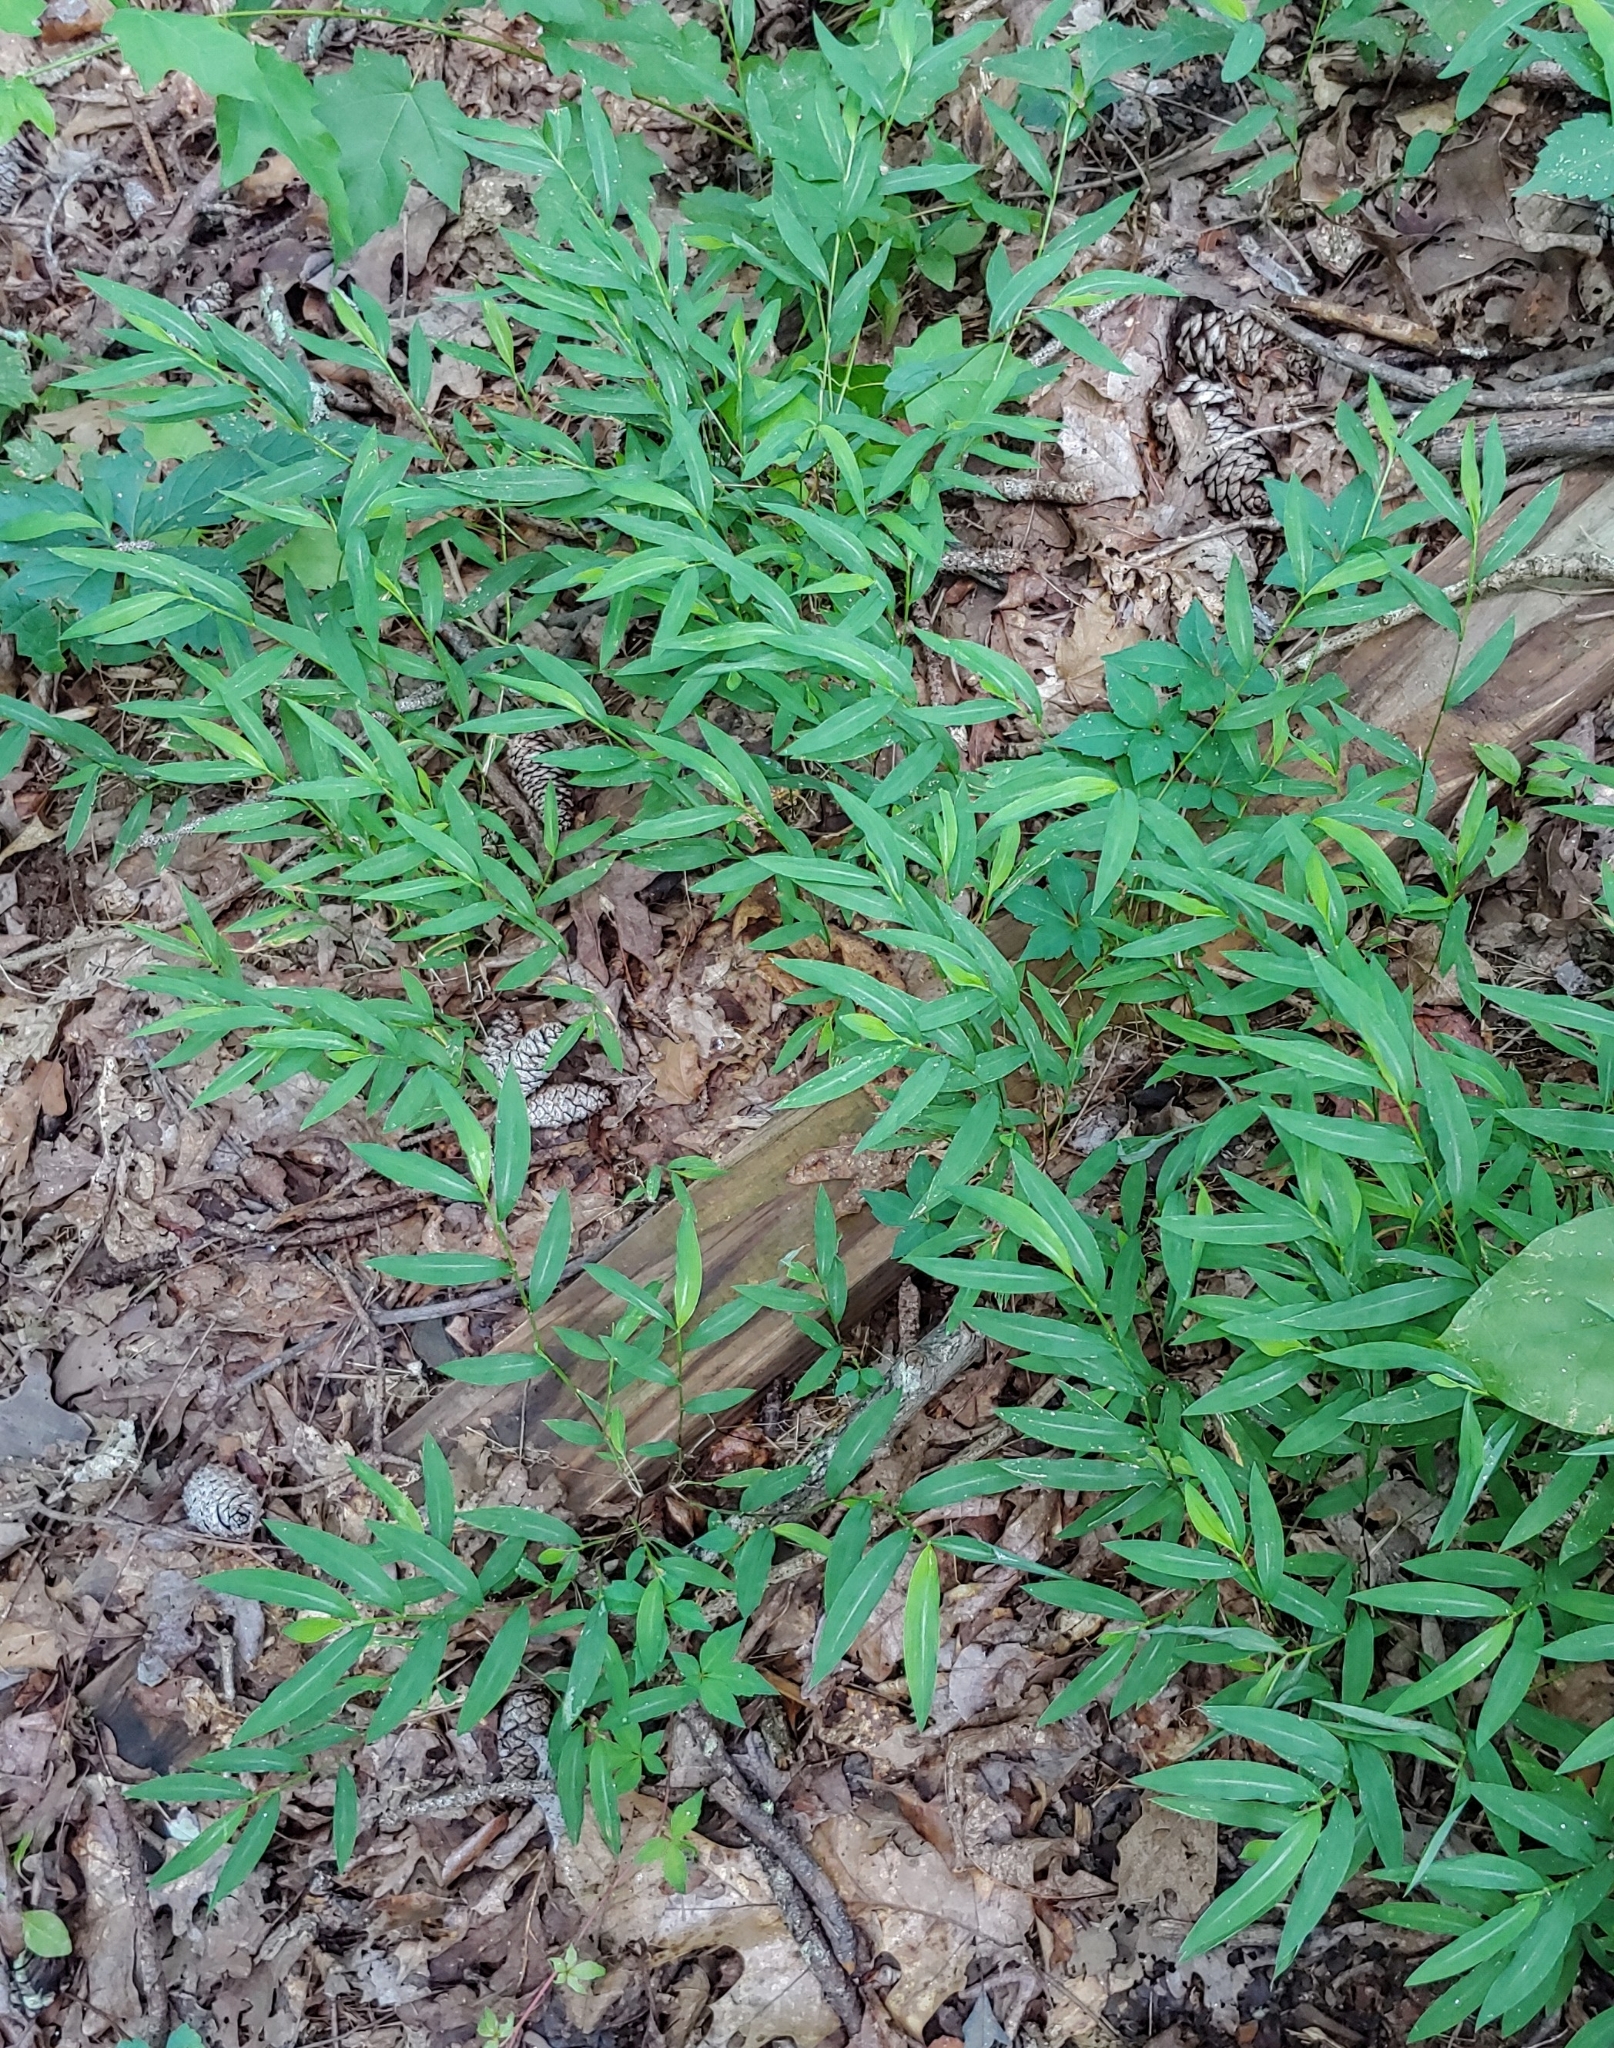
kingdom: Plantae
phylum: Tracheophyta
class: Liliopsida
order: Poales
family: Poaceae
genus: Microstegium
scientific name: Microstegium vimineum
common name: Japanese stiltgrass
